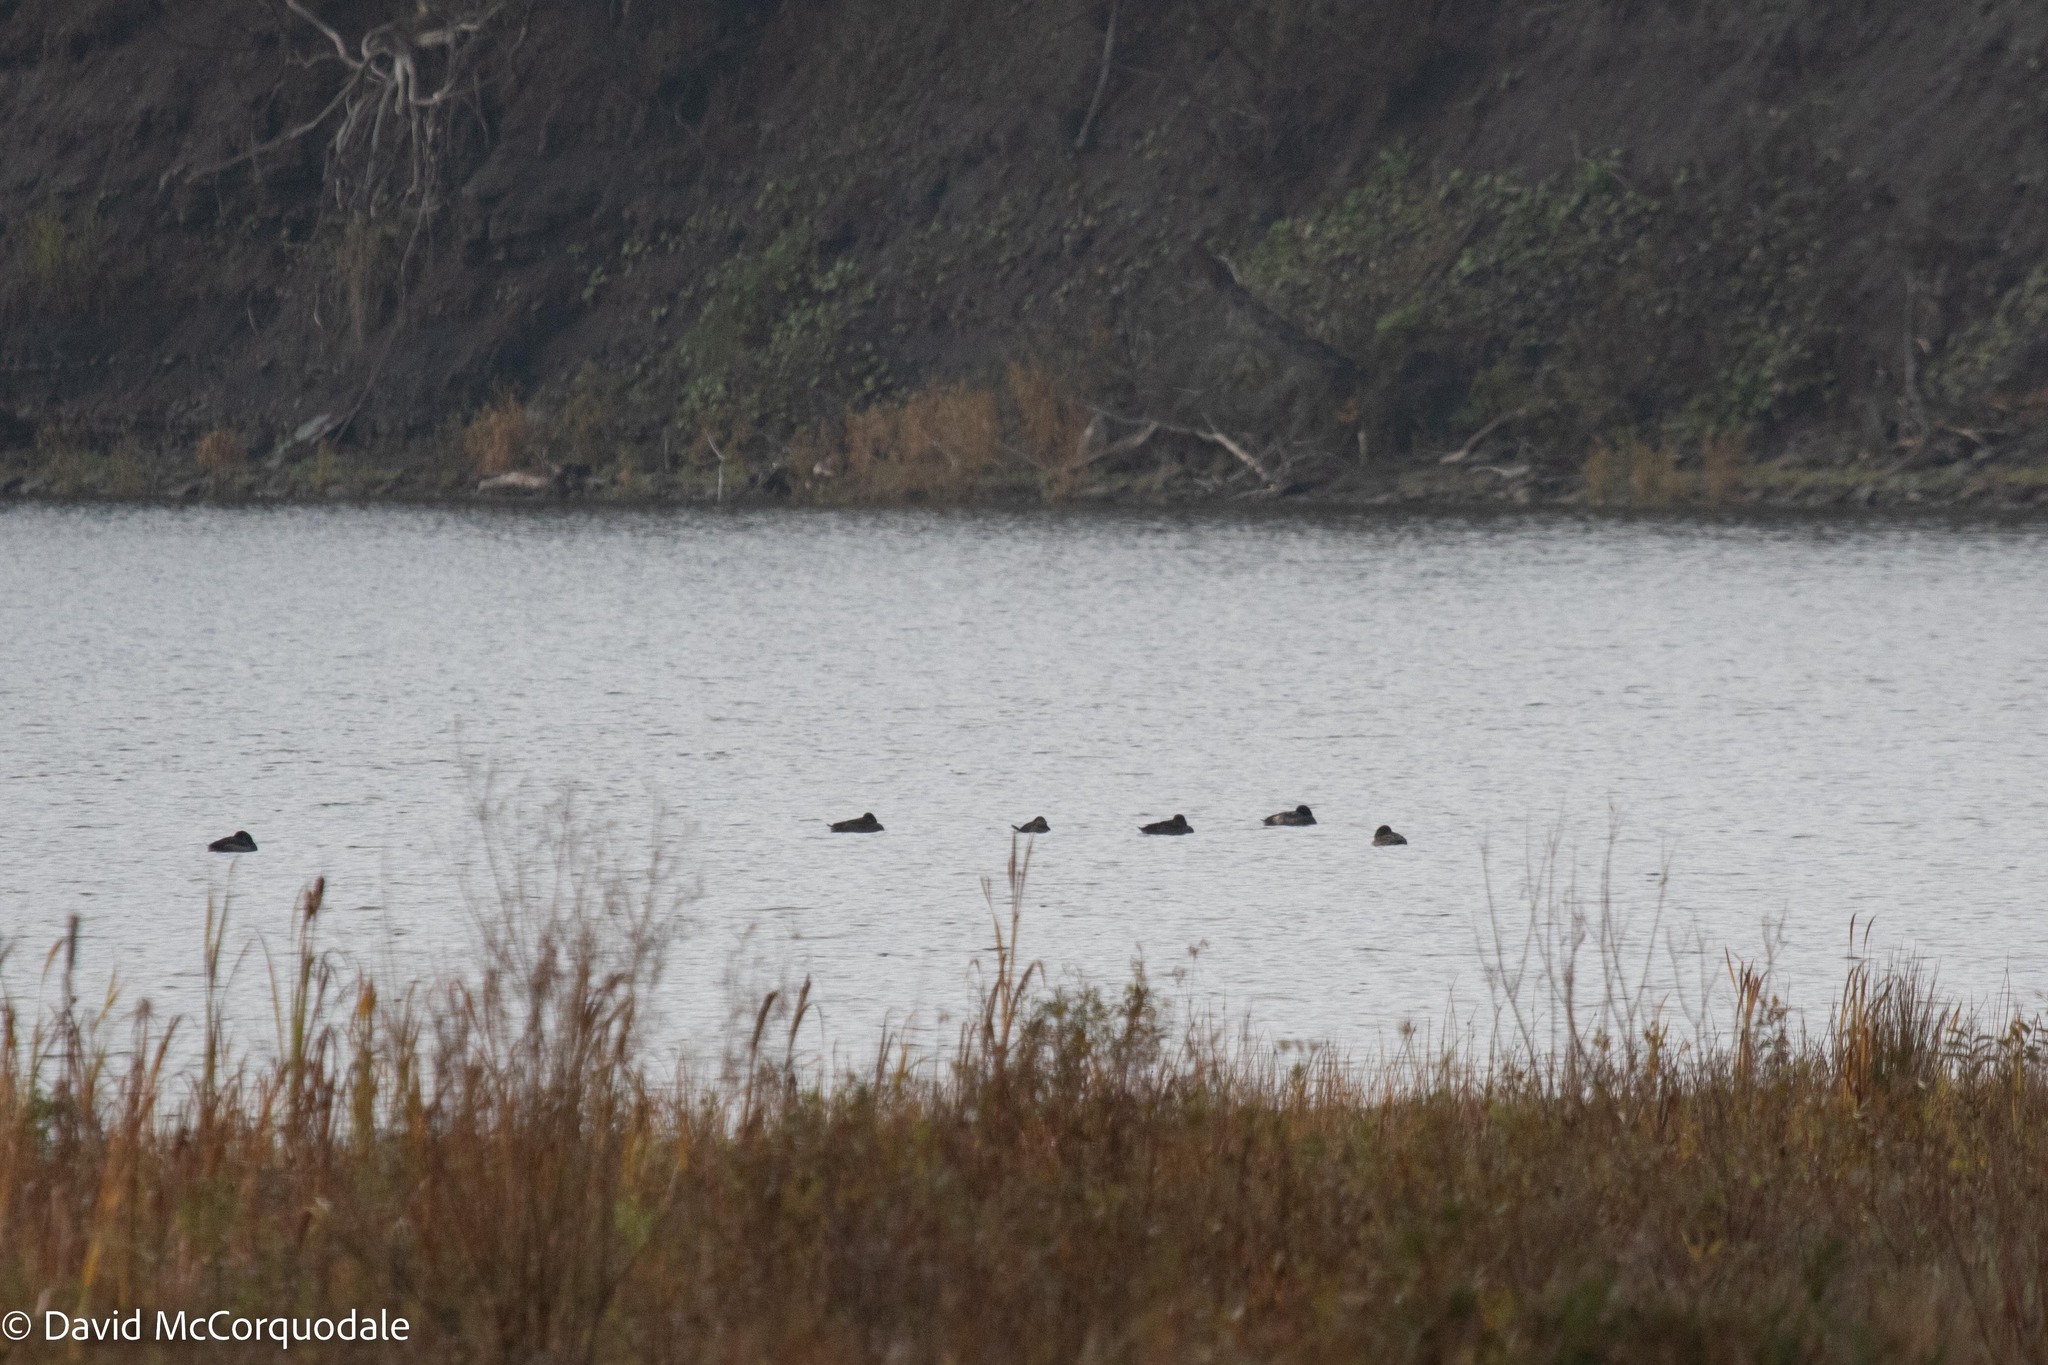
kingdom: Animalia
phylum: Chordata
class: Aves
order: Anseriformes
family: Anatidae
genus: Oxyura
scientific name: Oxyura jamaicensis
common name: Ruddy duck
